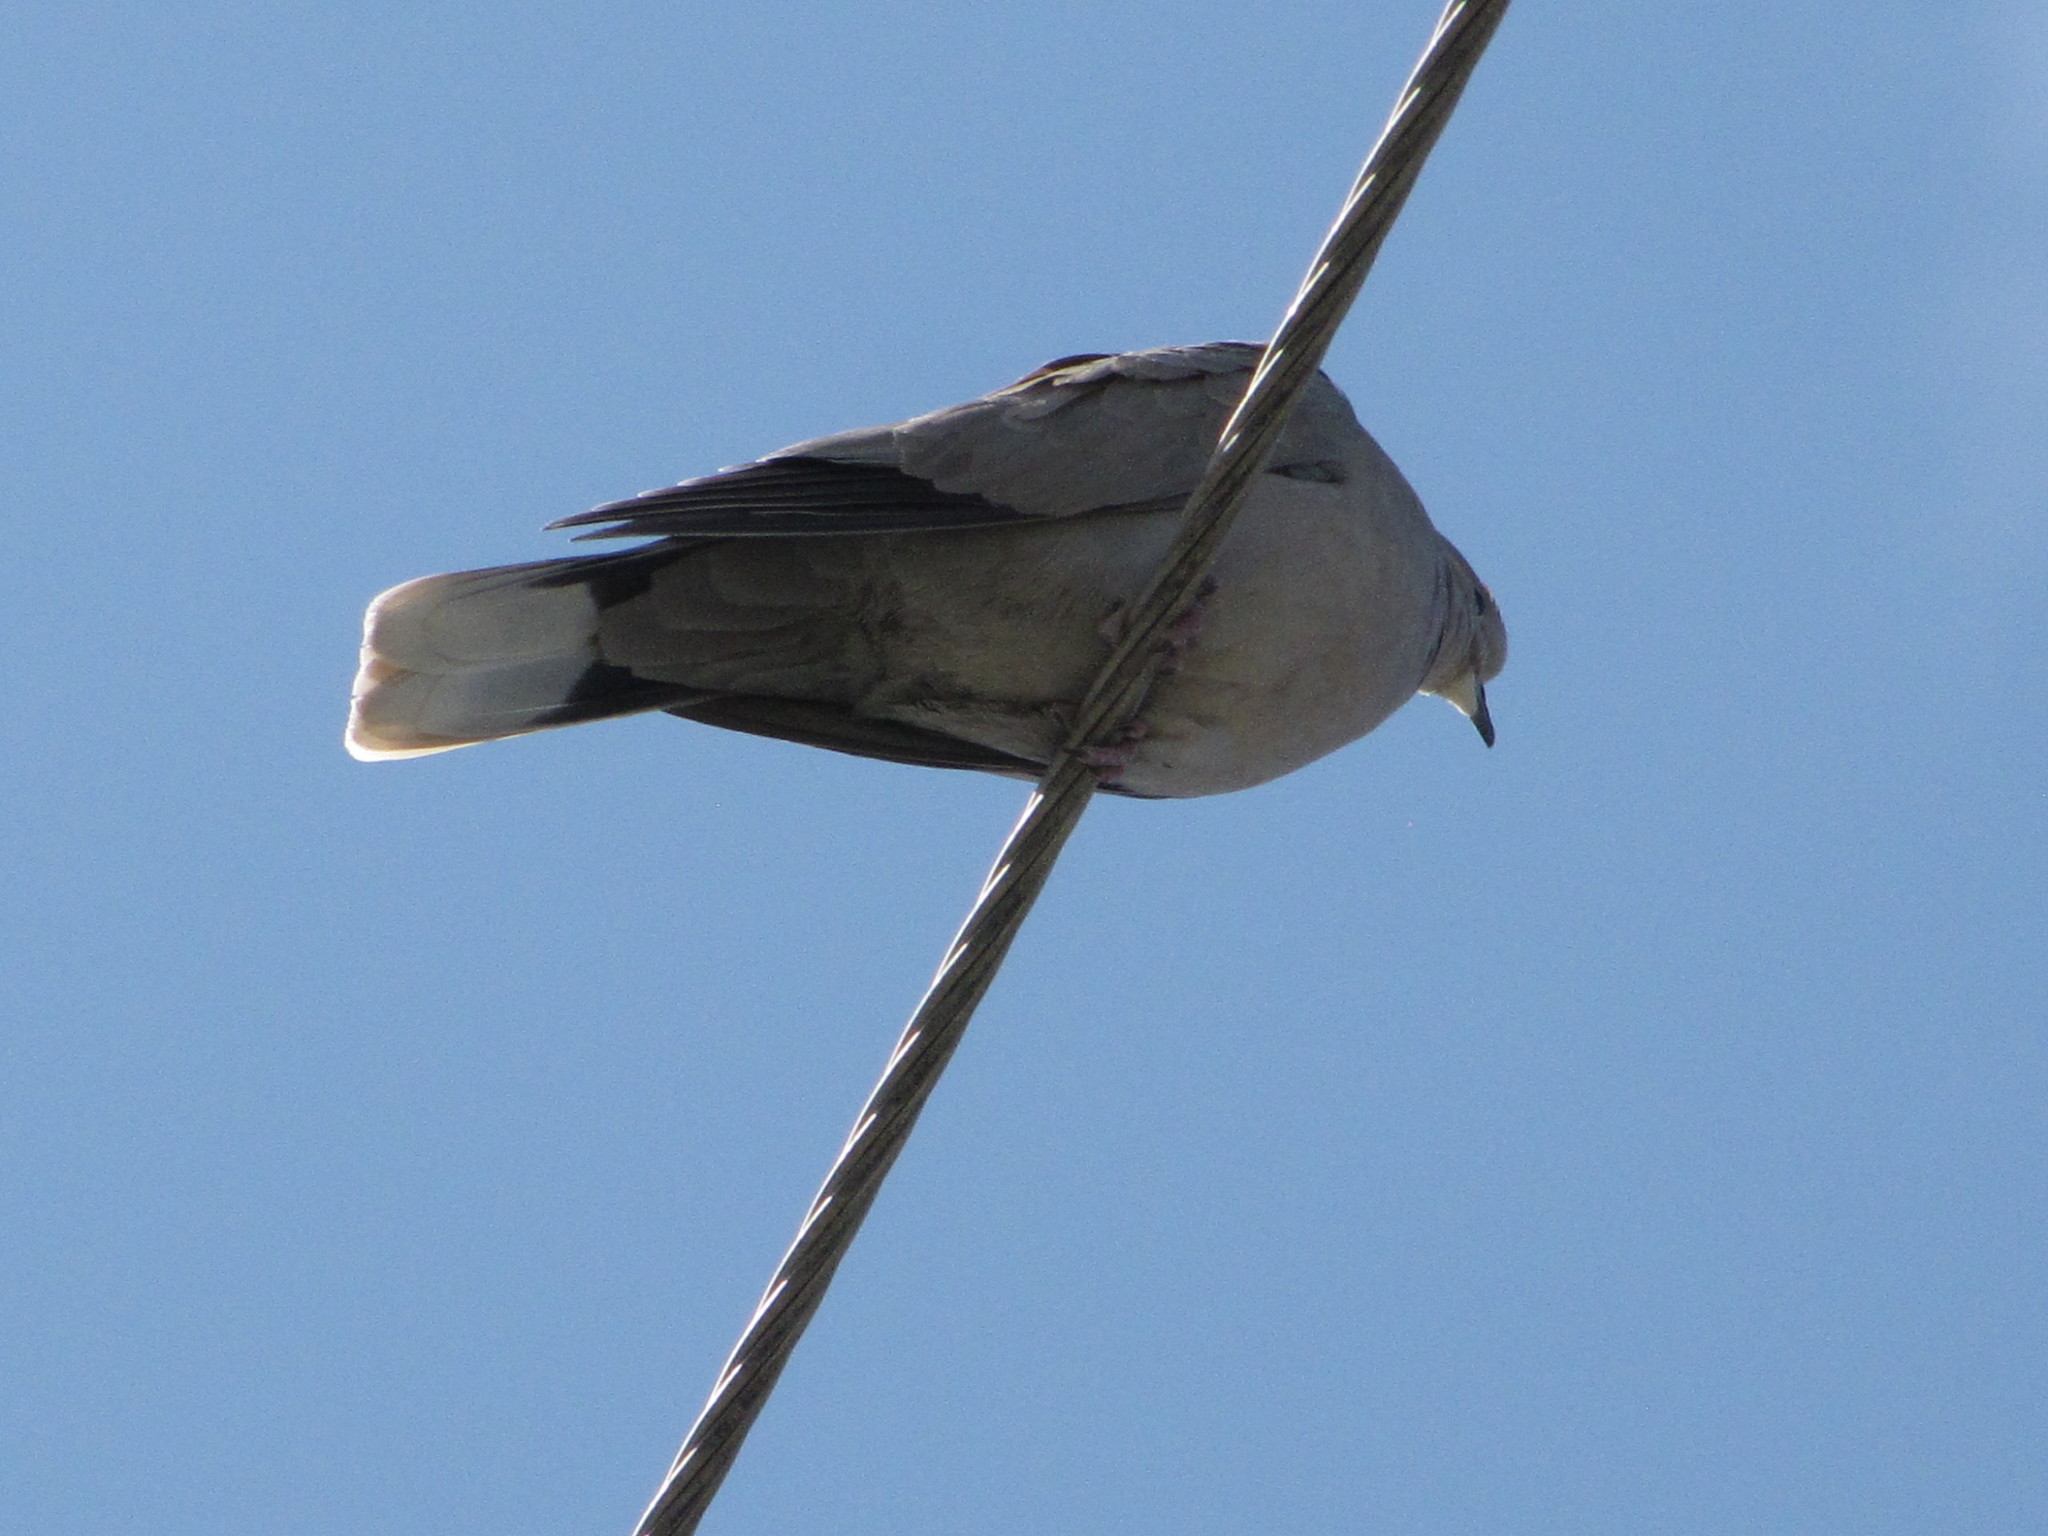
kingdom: Animalia
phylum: Chordata
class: Aves
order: Columbiformes
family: Columbidae
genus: Streptopelia
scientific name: Streptopelia decaocto
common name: Eurasian collared dove
